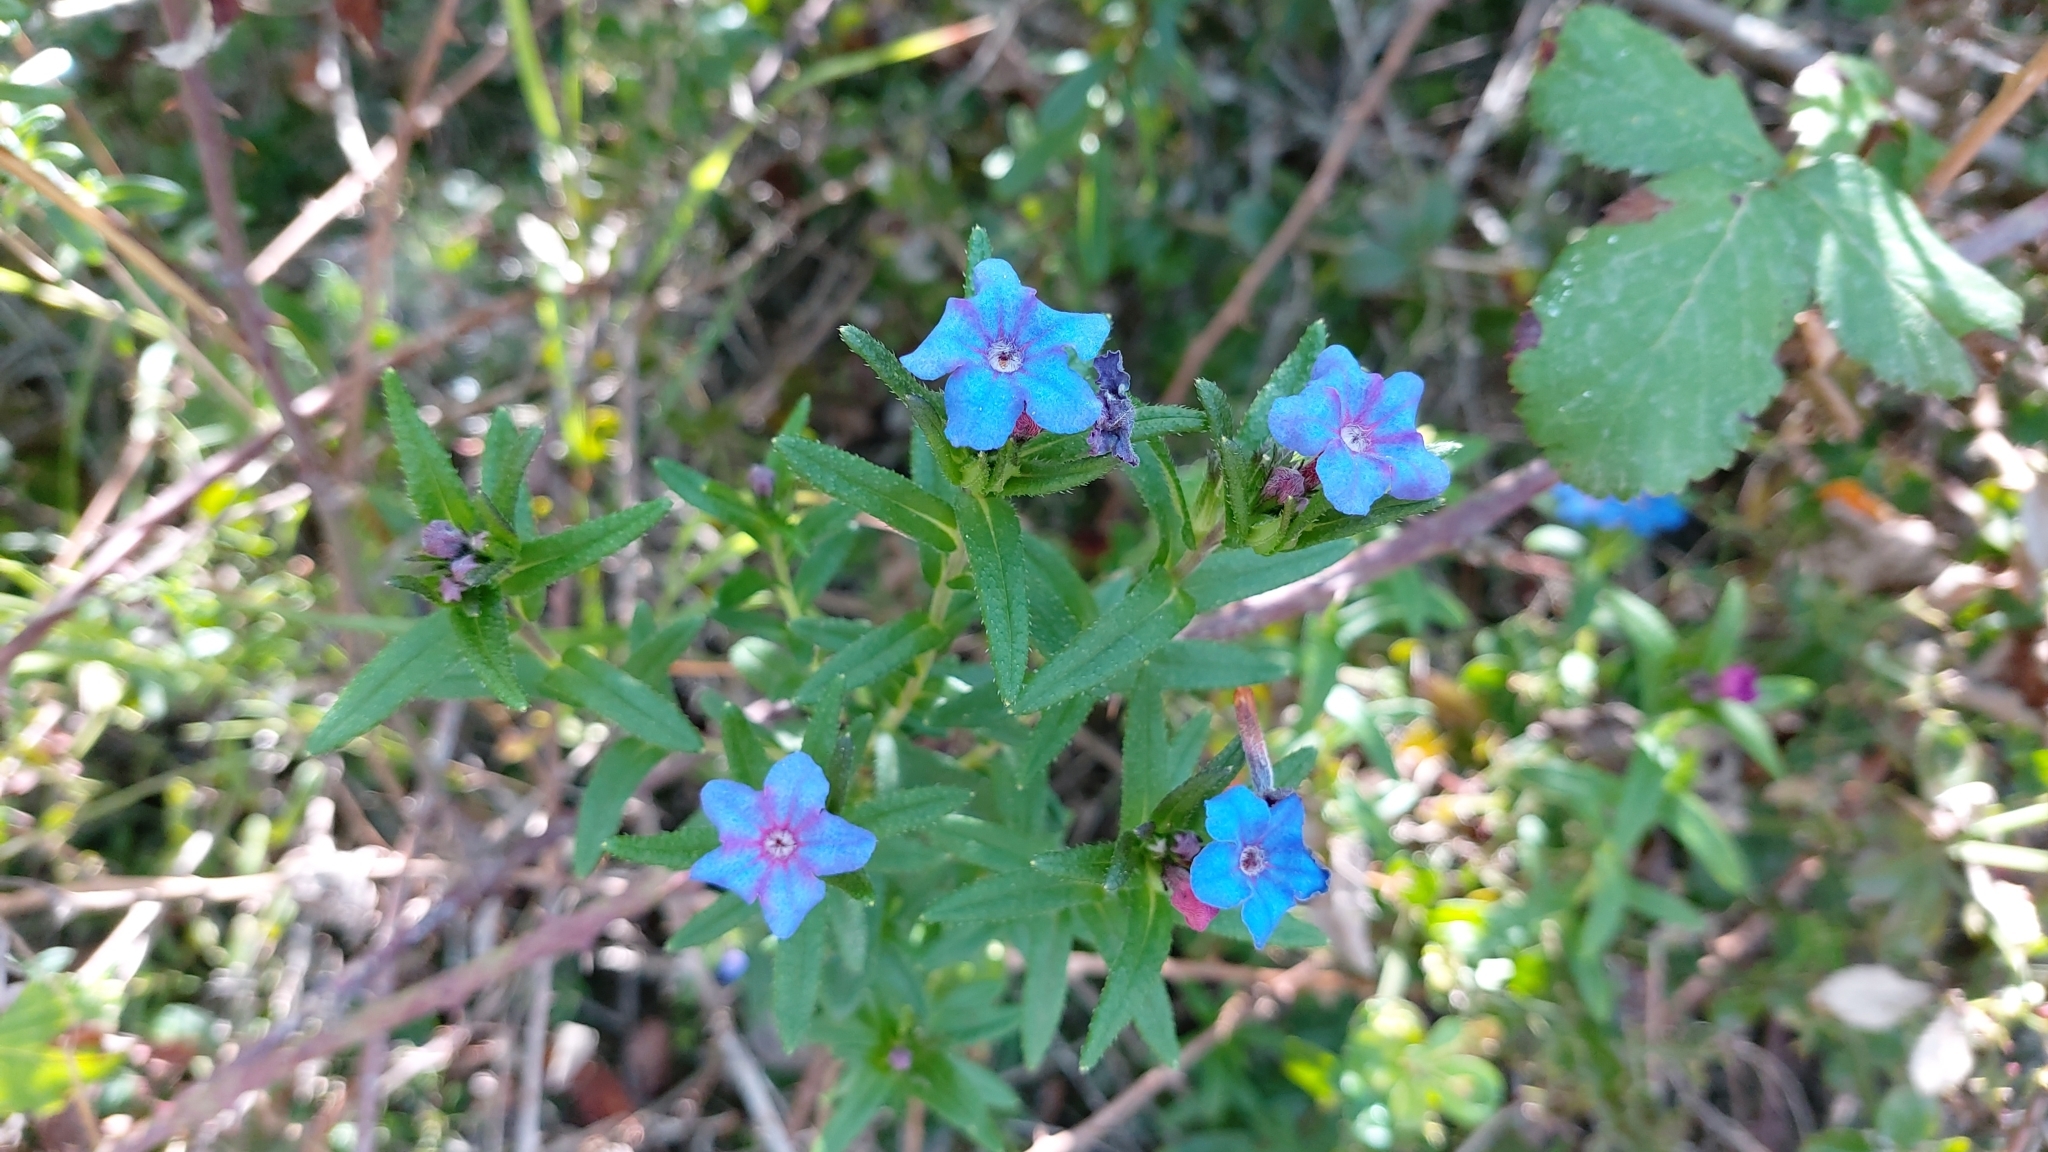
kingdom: Plantae
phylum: Tracheophyta
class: Magnoliopsida
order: Boraginales
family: Boraginaceae
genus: Glandora
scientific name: Glandora prostrata
